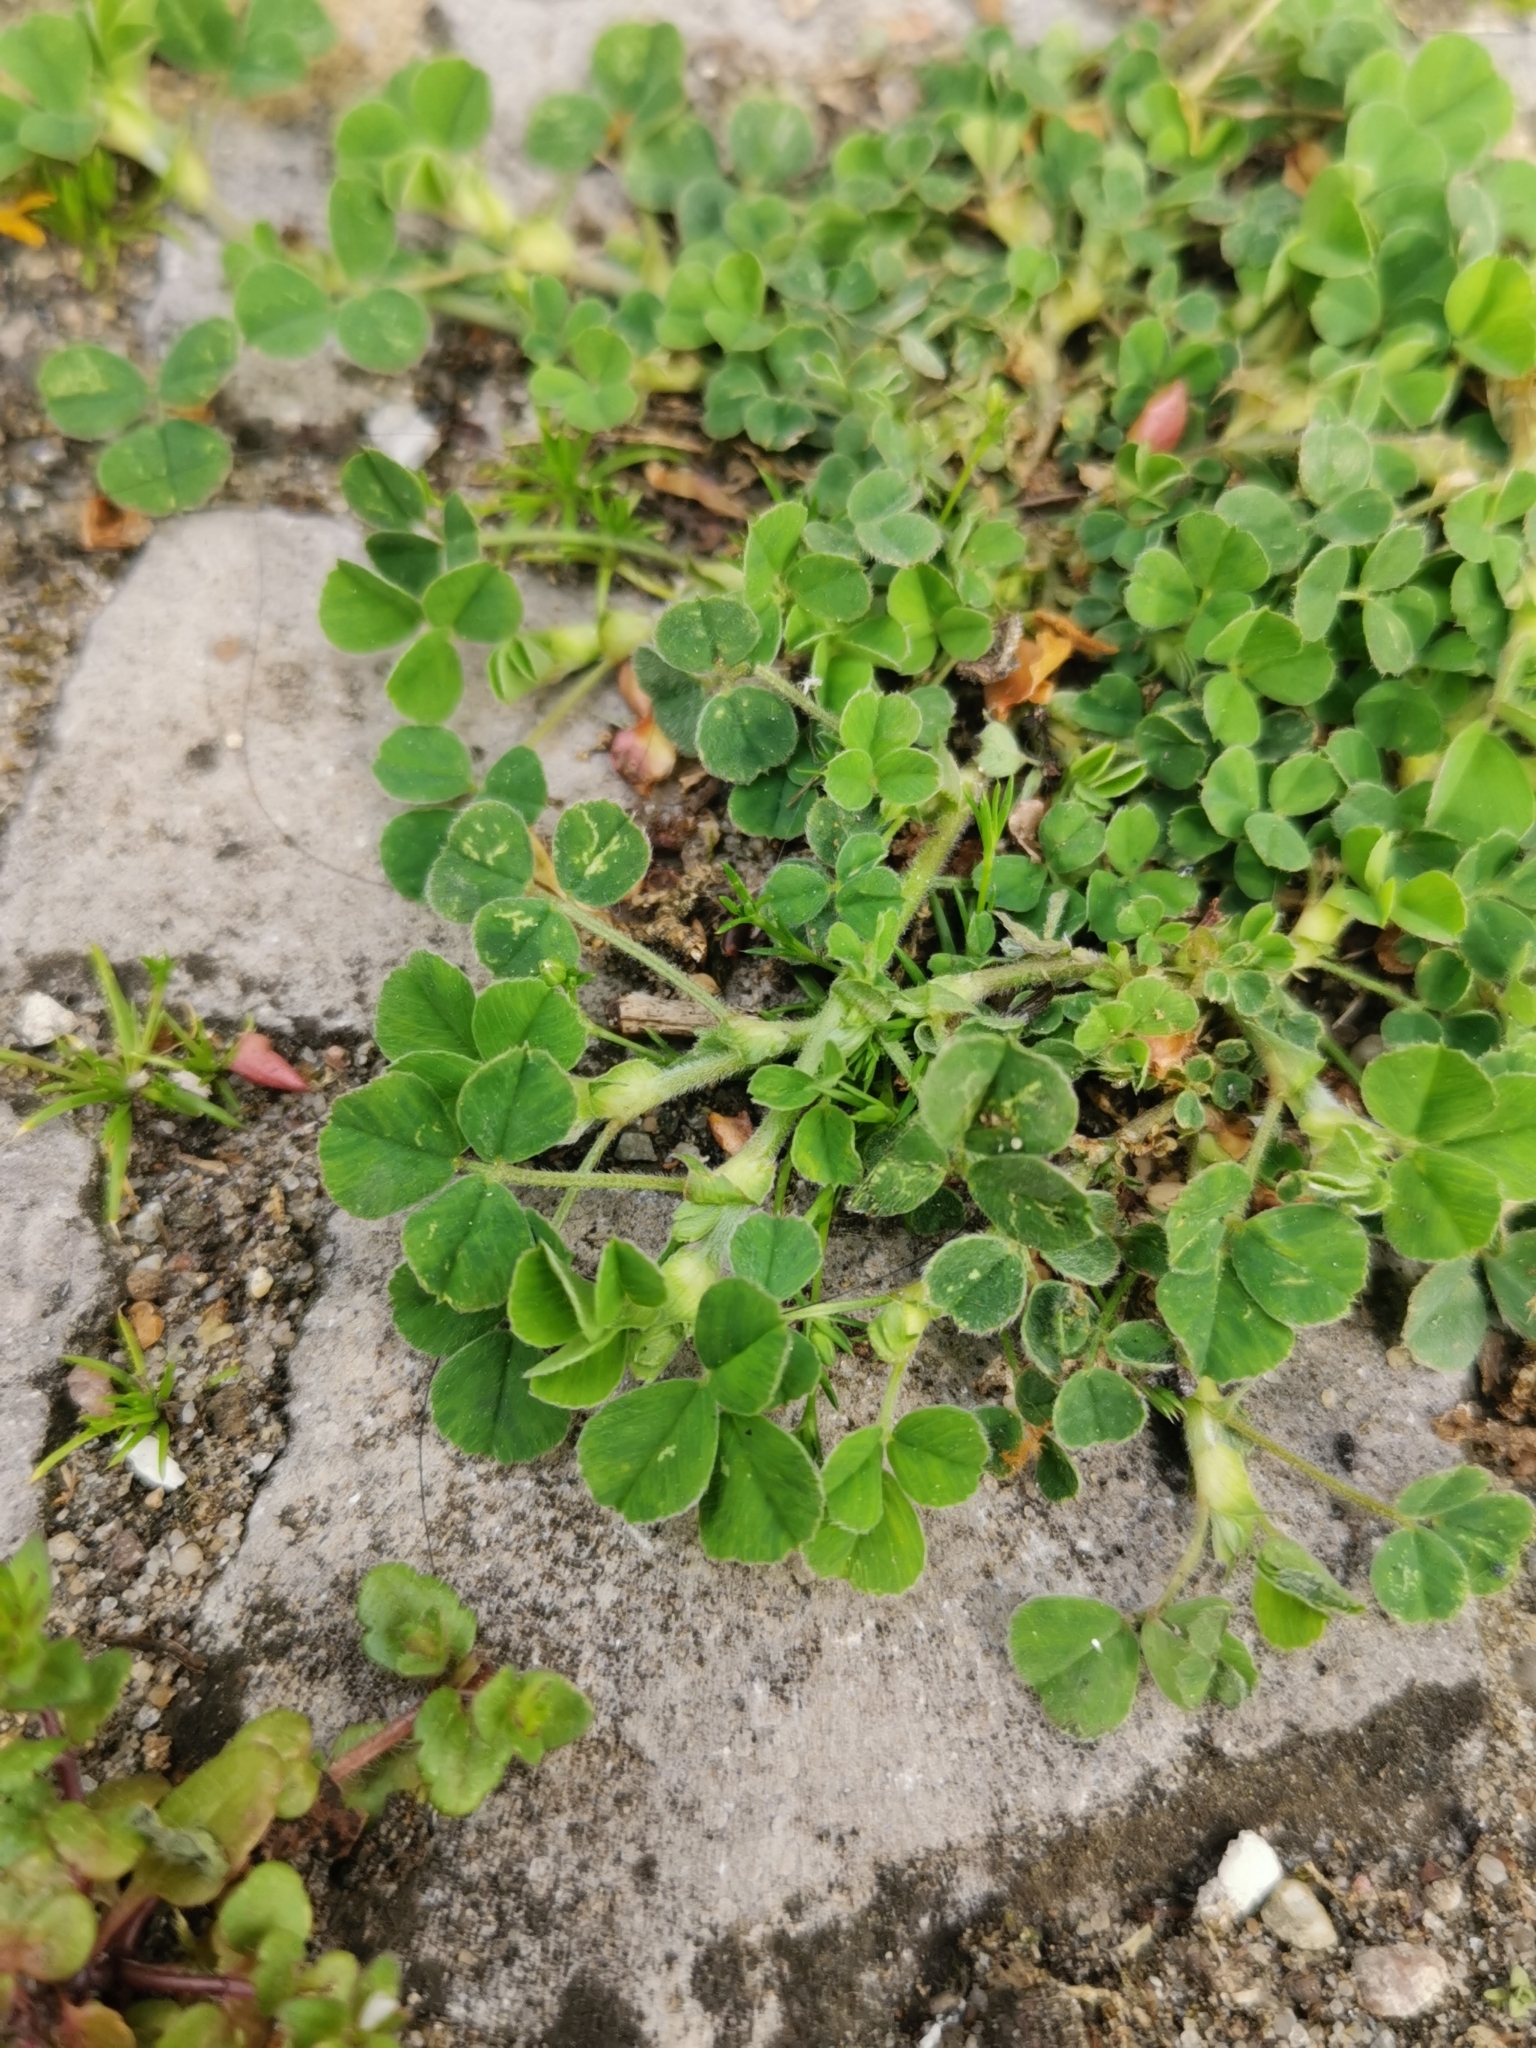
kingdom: Plantae
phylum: Tracheophyta
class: Magnoliopsida
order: Fabales
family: Fabaceae
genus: Medicago
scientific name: Medicago lupulina
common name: Black medick
